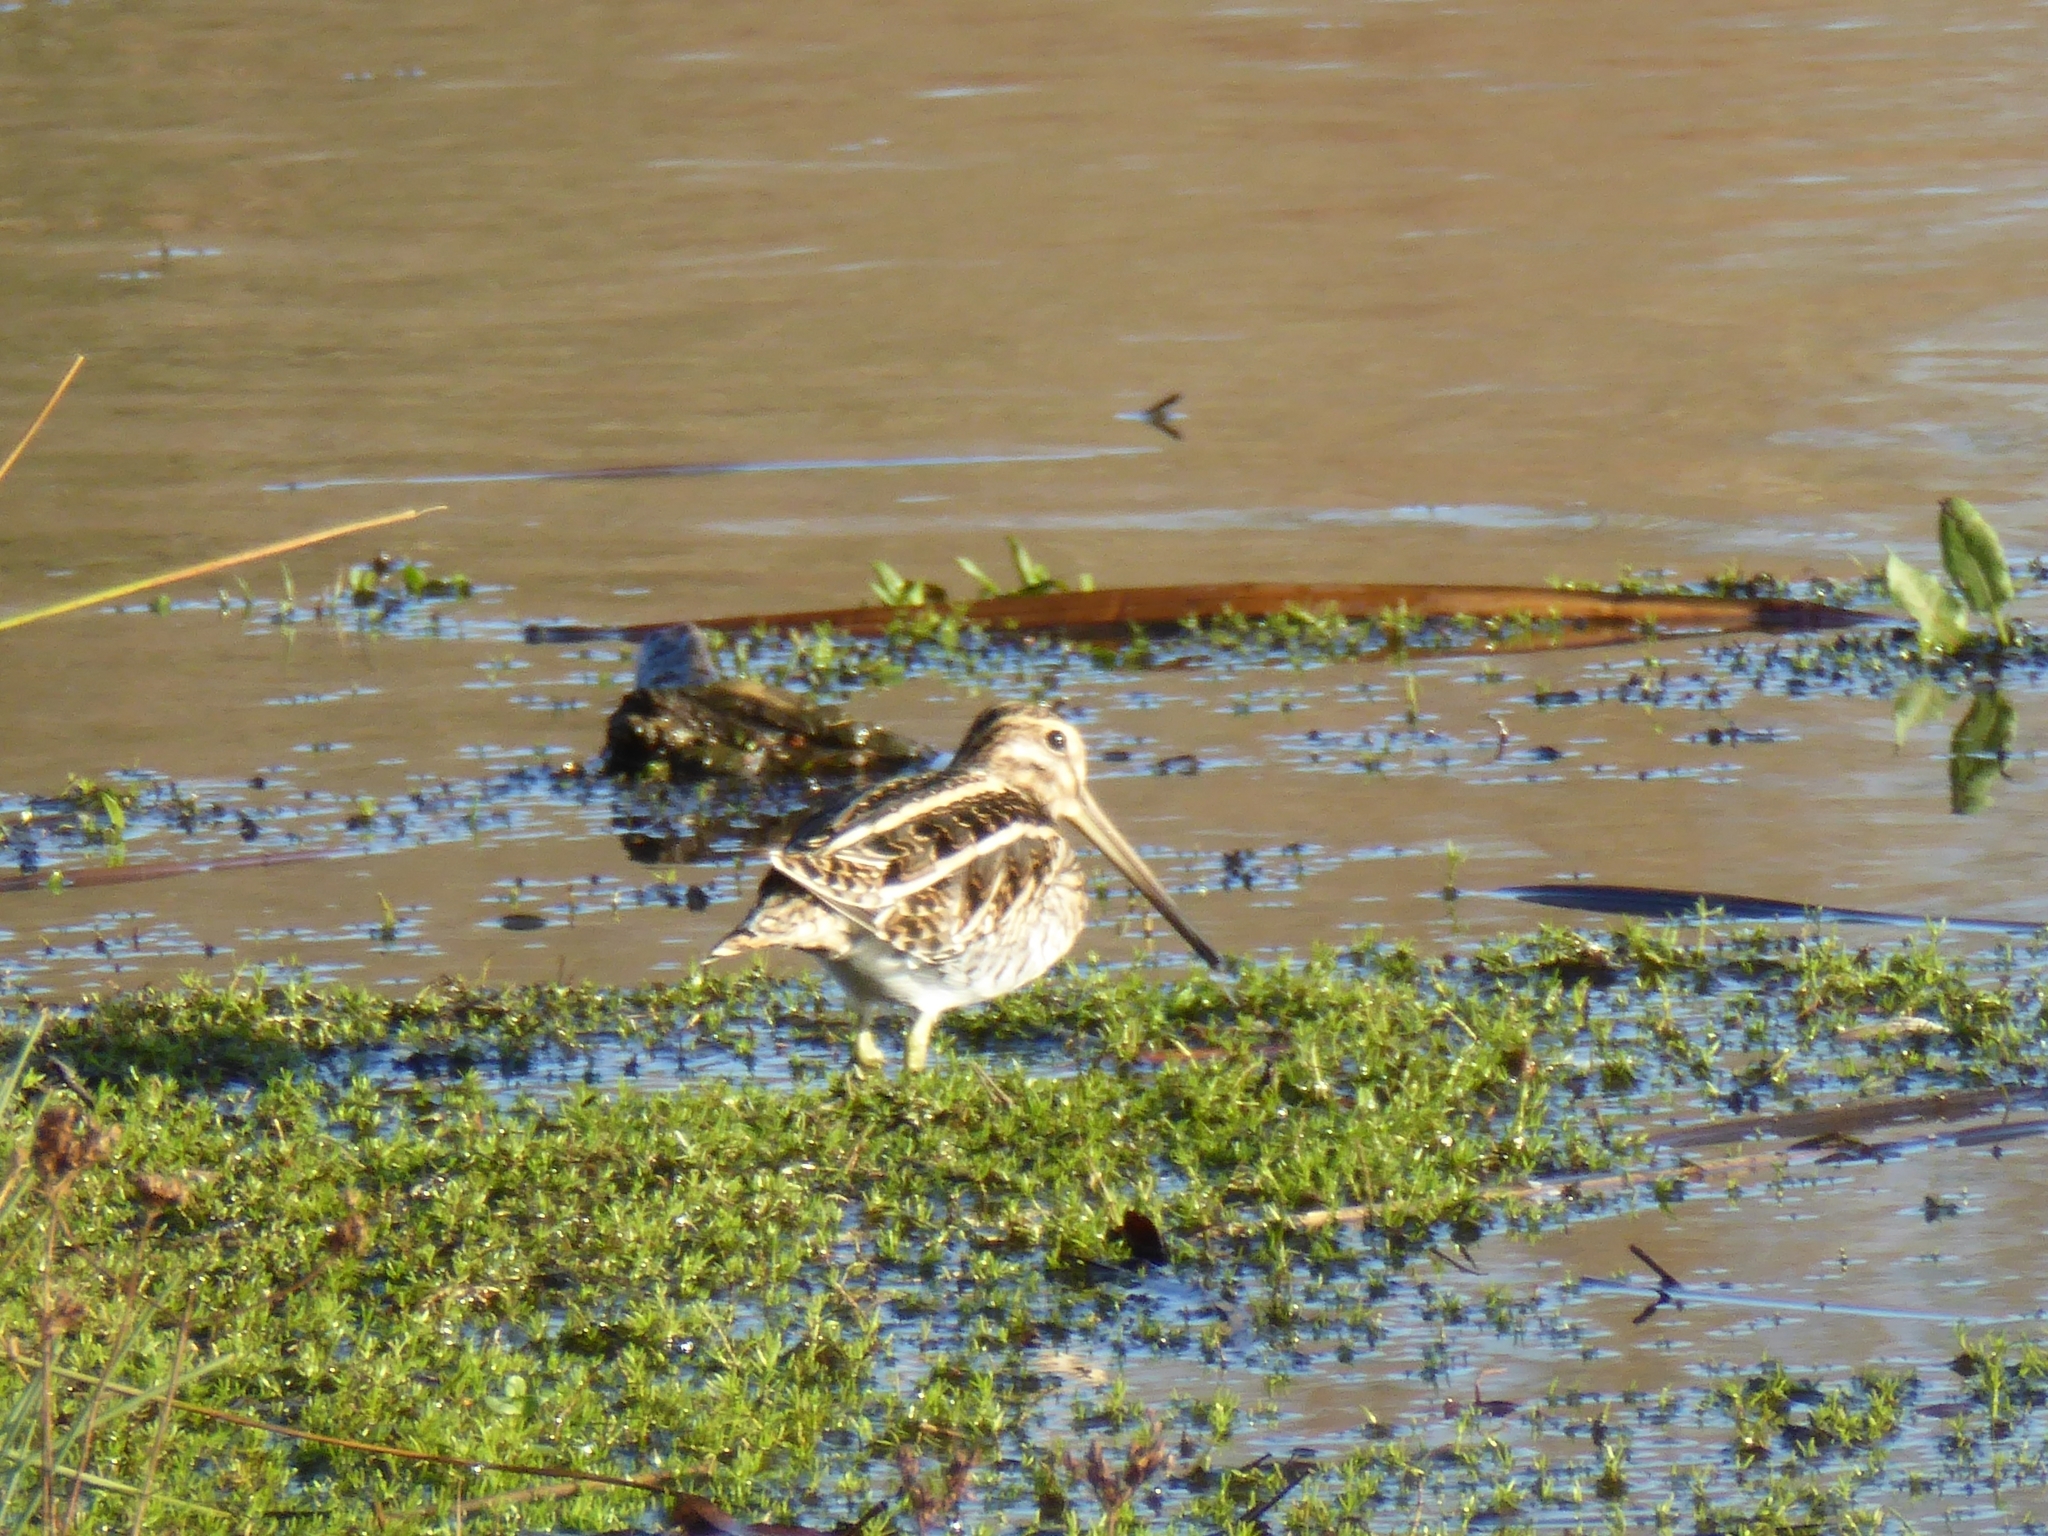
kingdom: Animalia
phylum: Chordata
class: Aves
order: Charadriiformes
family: Scolopacidae
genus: Gallinago
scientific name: Gallinago gallinago
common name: Common snipe
